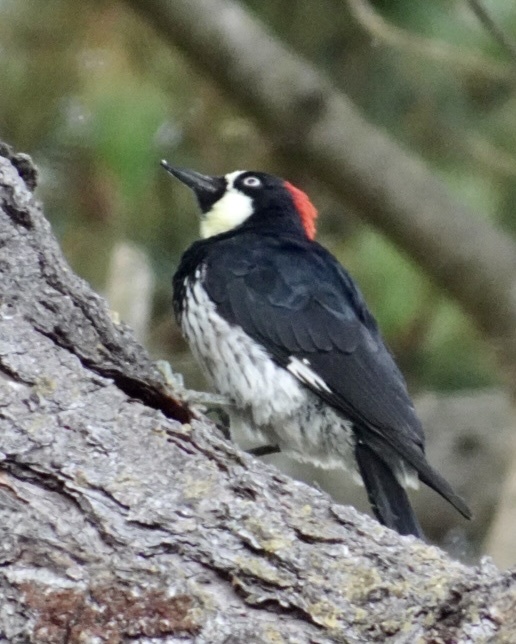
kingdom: Animalia
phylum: Chordata
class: Aves
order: Piciformes
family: Picidae
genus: Melanerpes
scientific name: Melanerpes formicivorus
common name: Acorn woodpecker
